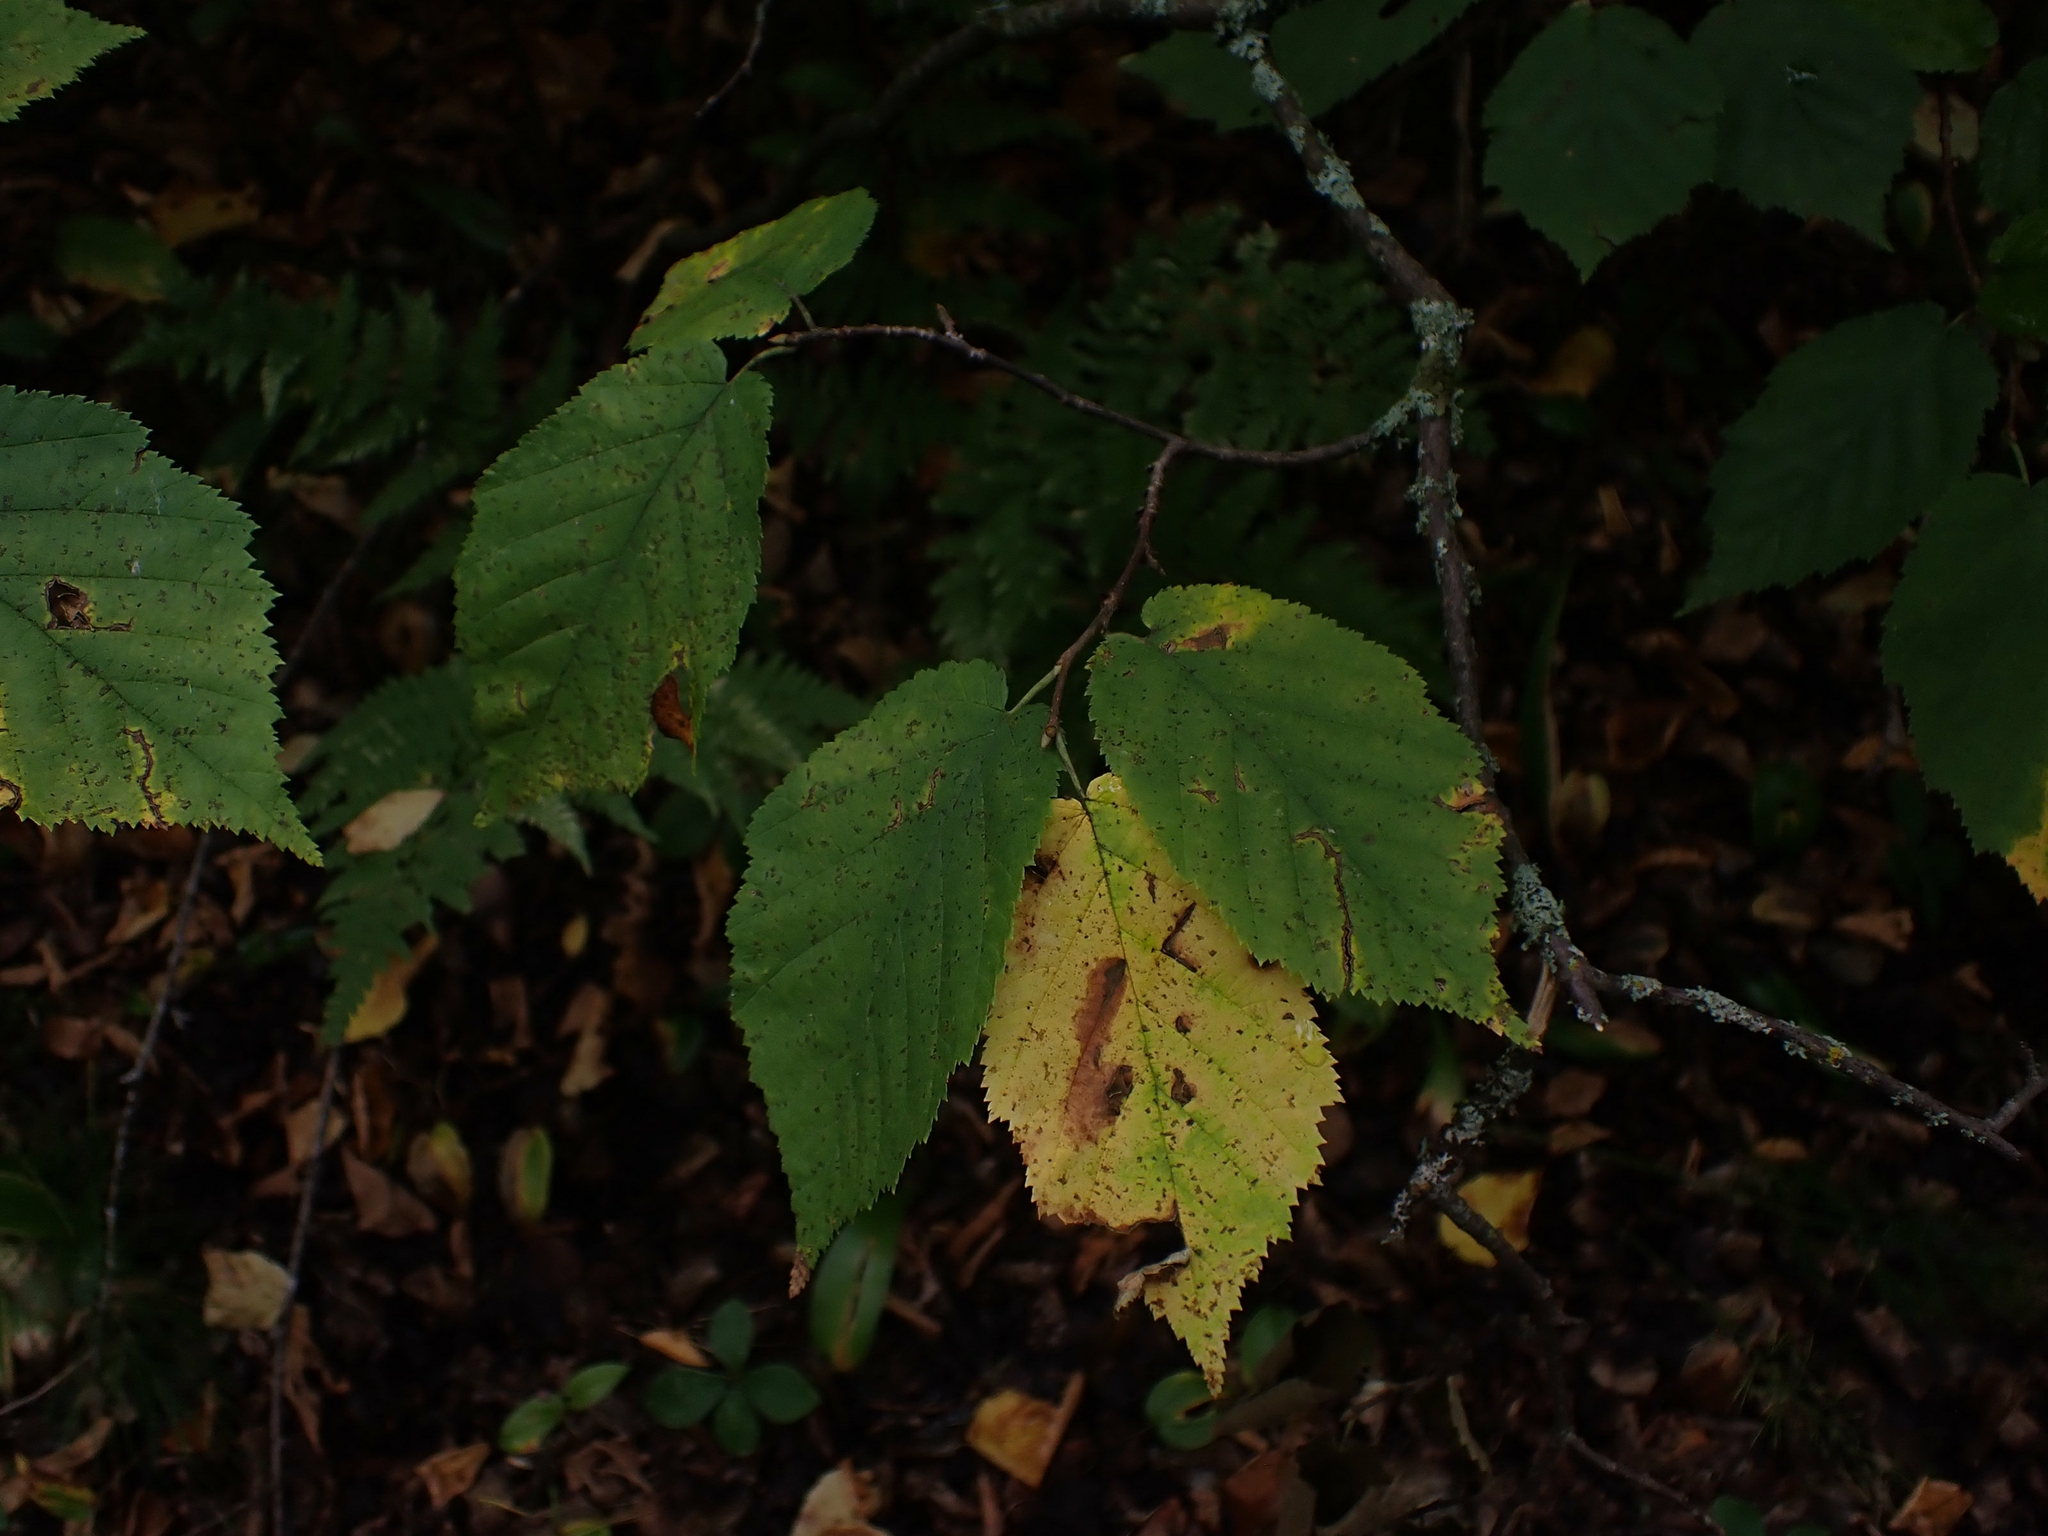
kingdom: Plantae
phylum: Tracheophyta
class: Magnoliopsida
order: Fagales
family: Betulaceae
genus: Corylus
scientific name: Corylus cornuta
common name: Beaked hazel
